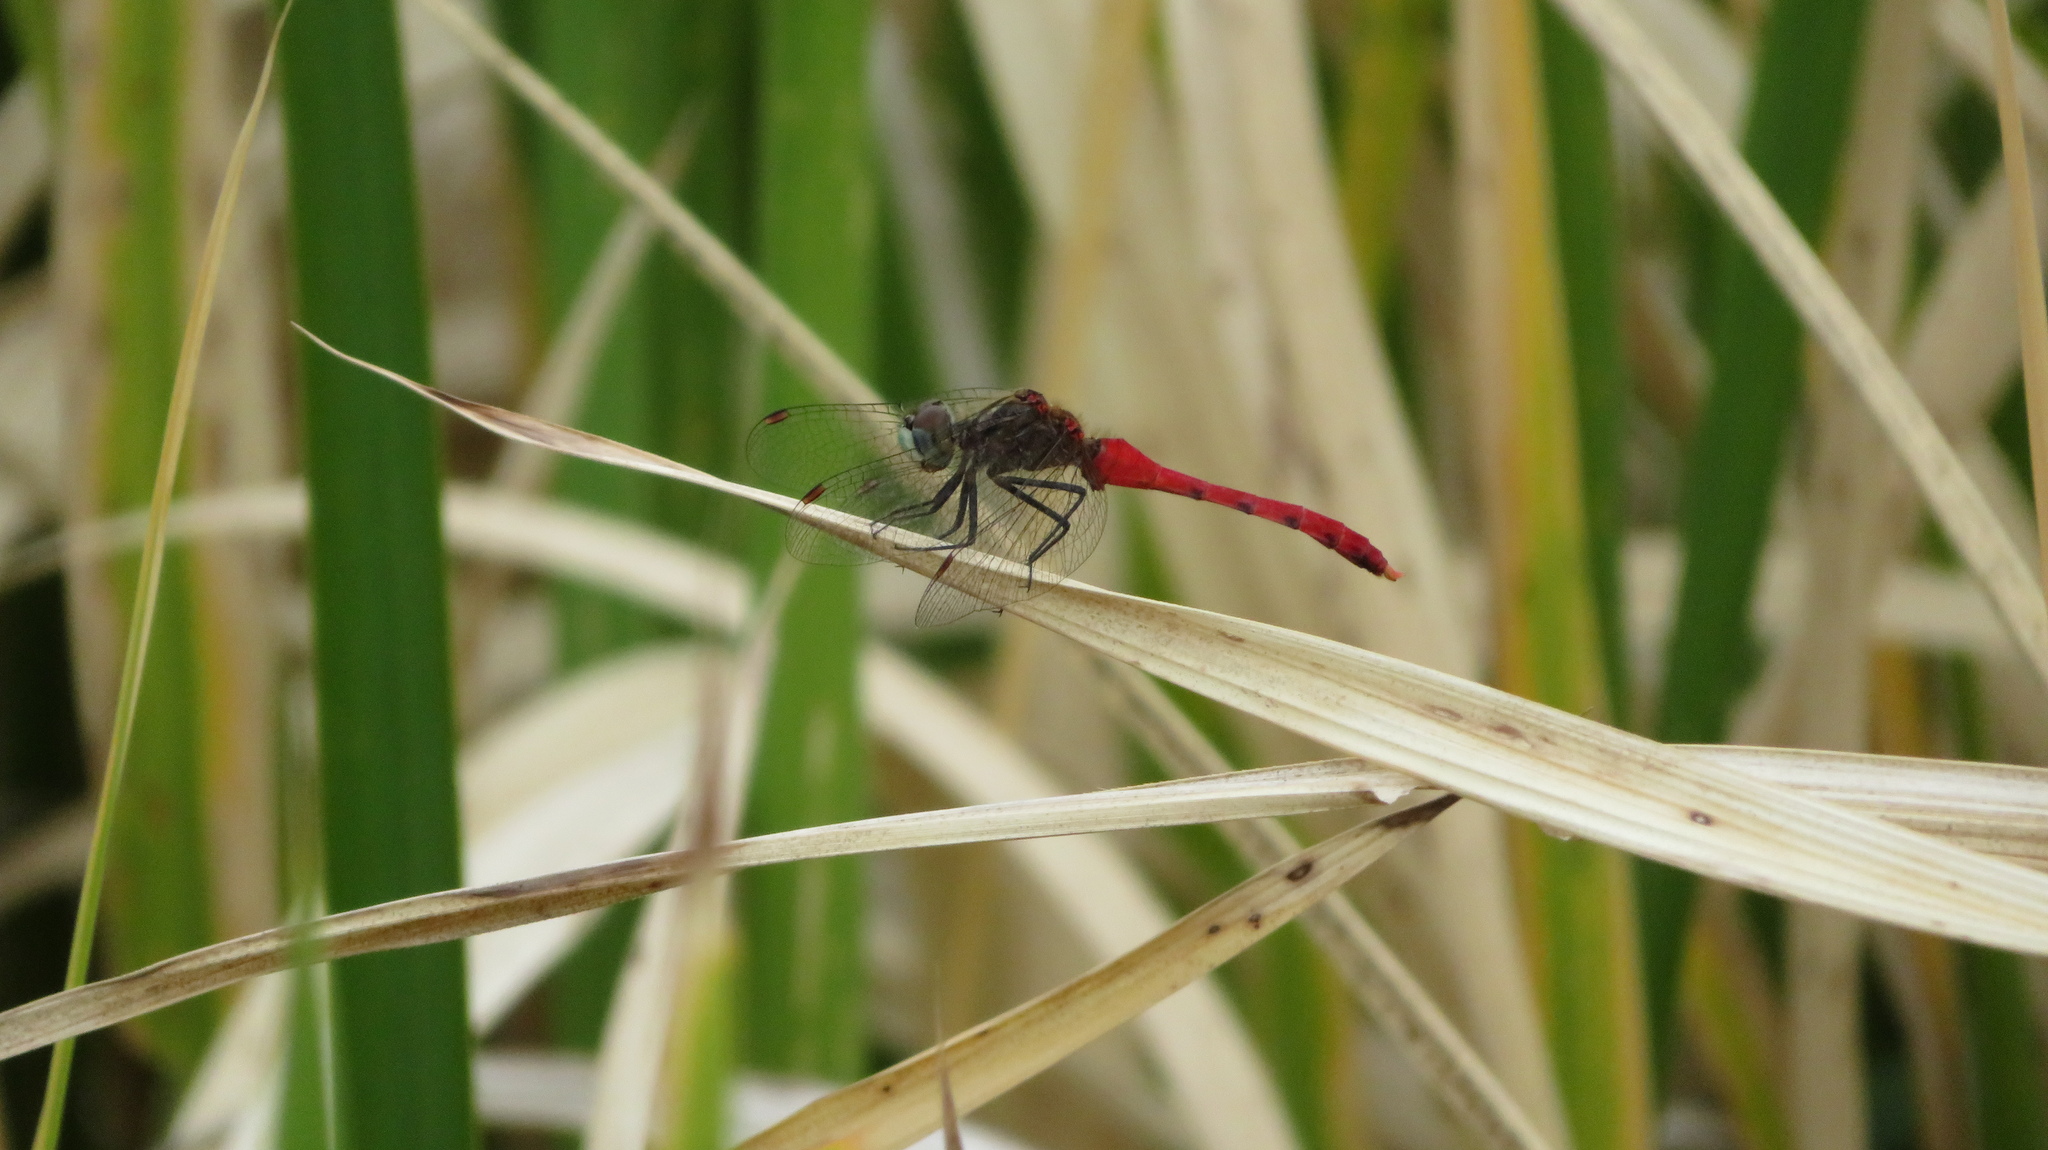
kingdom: Animalia
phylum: Arthropoda
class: Insecta
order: Odonata
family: Libellulidae
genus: Sympetrum
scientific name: Sympetrum kunckeli
